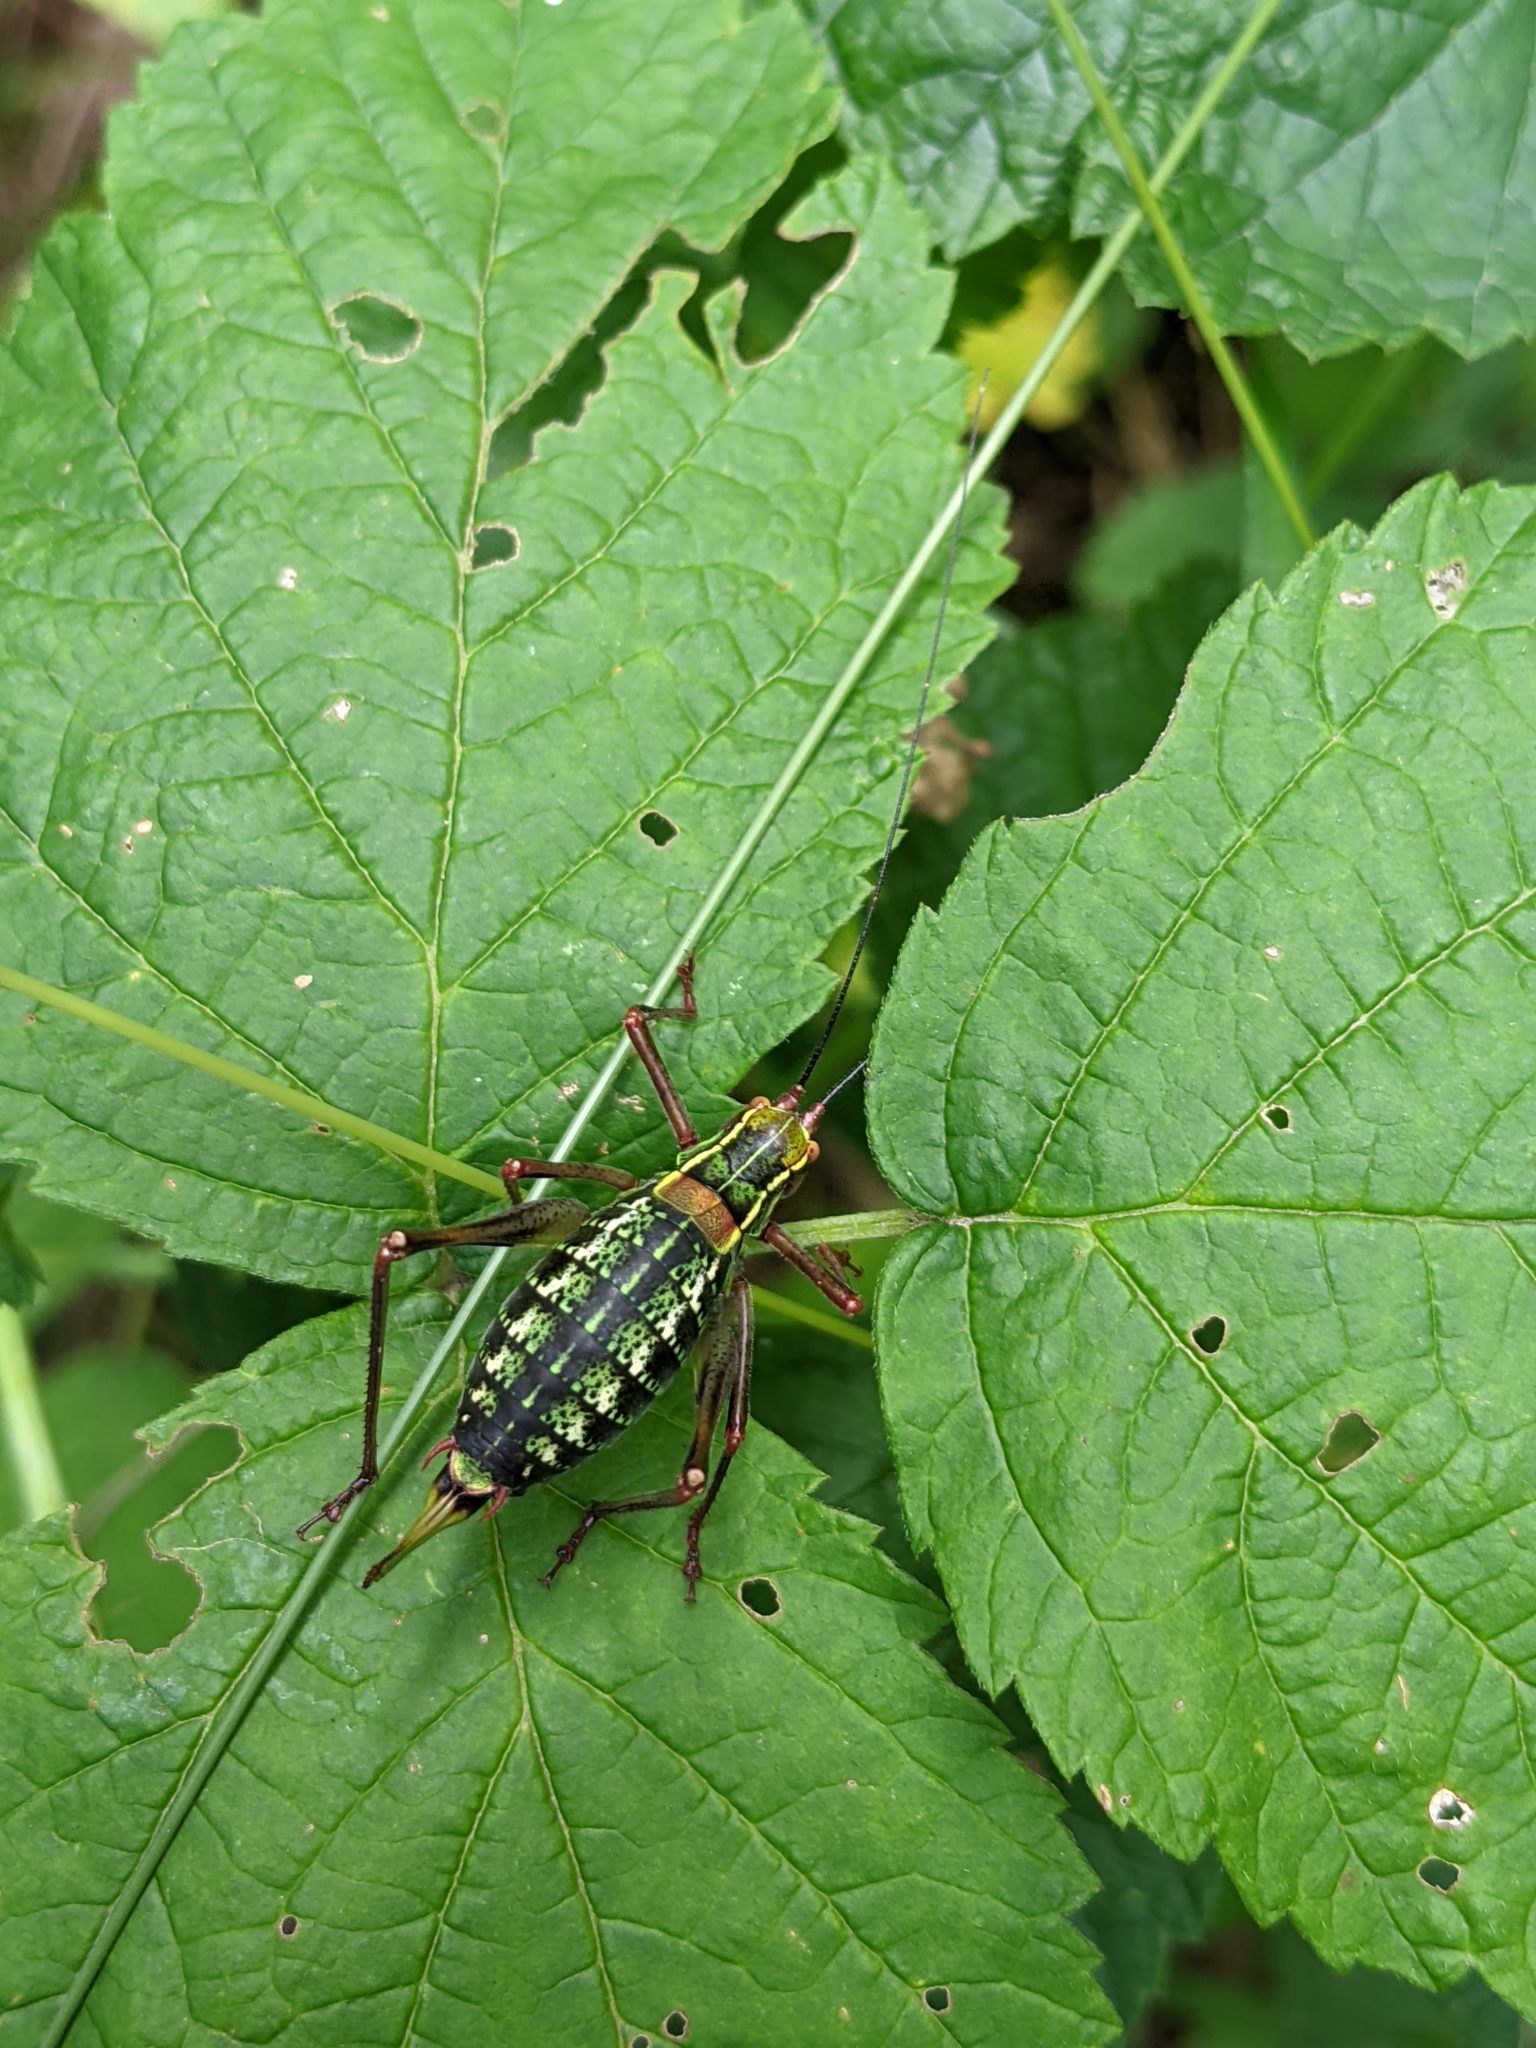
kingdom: Animalia
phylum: Arthropoda
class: Insecta
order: Orthoptera
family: Tettigoniidae
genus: Barbitistes
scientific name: Barbitistes serricauda
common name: Saw-tailed bush-cricket
